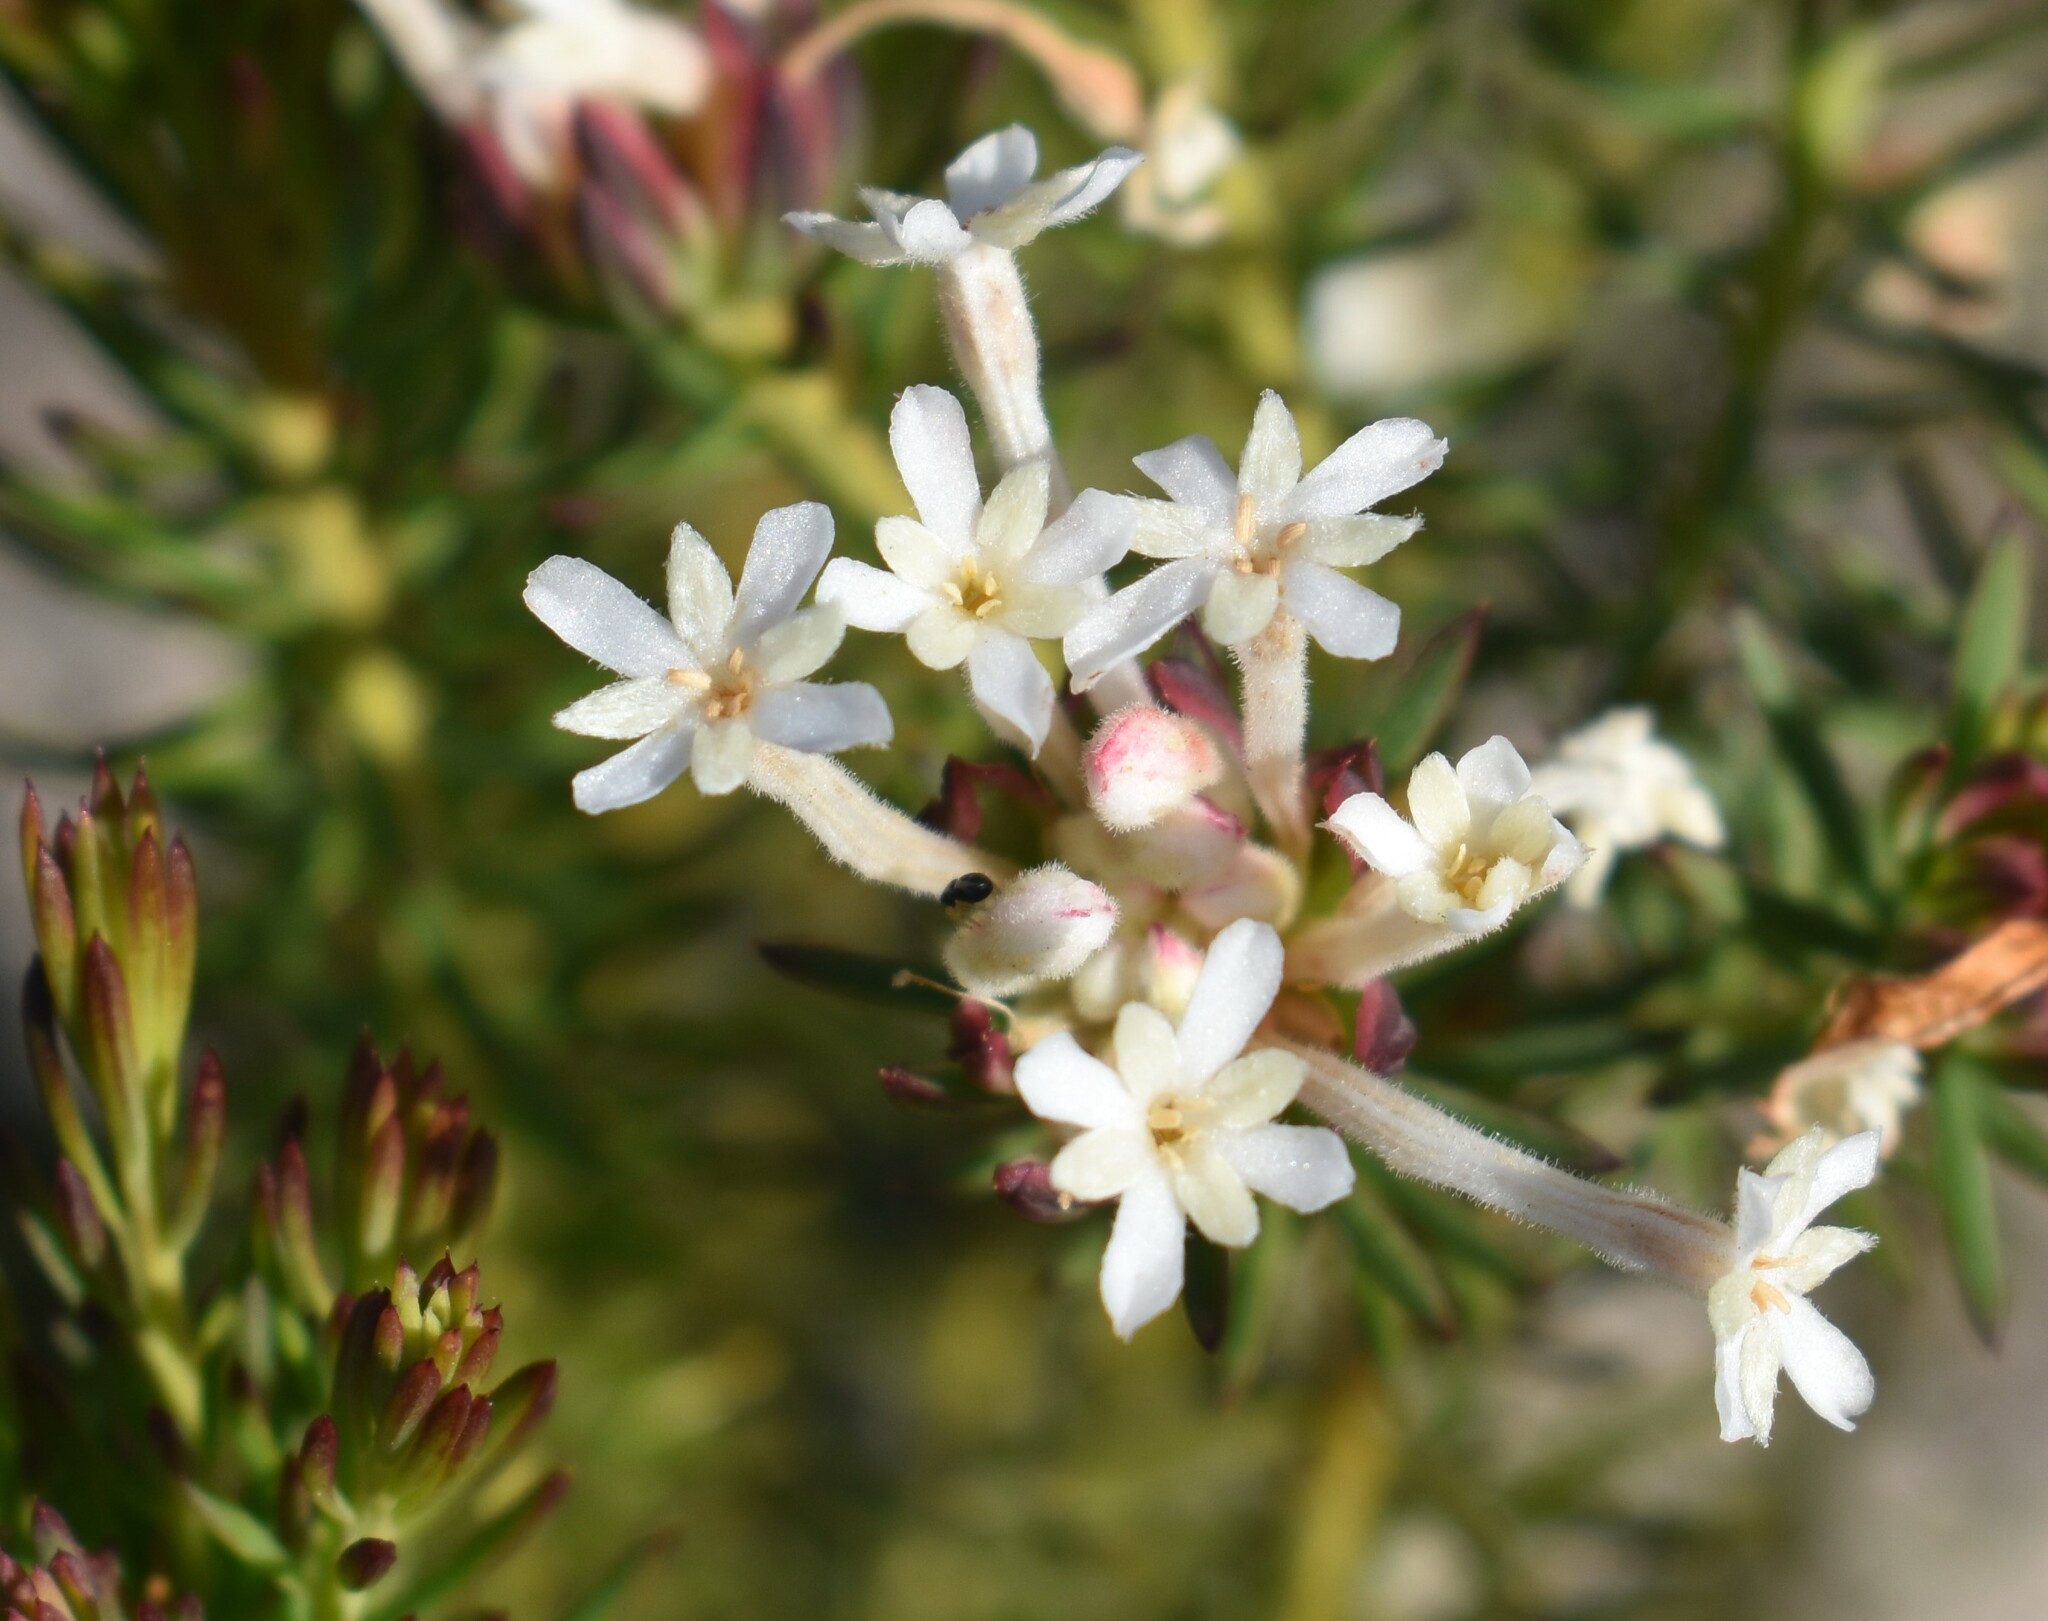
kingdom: Plantae
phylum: Tracheophyta
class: Magnoliopsida
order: Malvales
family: Thymelaeaceae
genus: Gnidia
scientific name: Gnidia pinifolia
